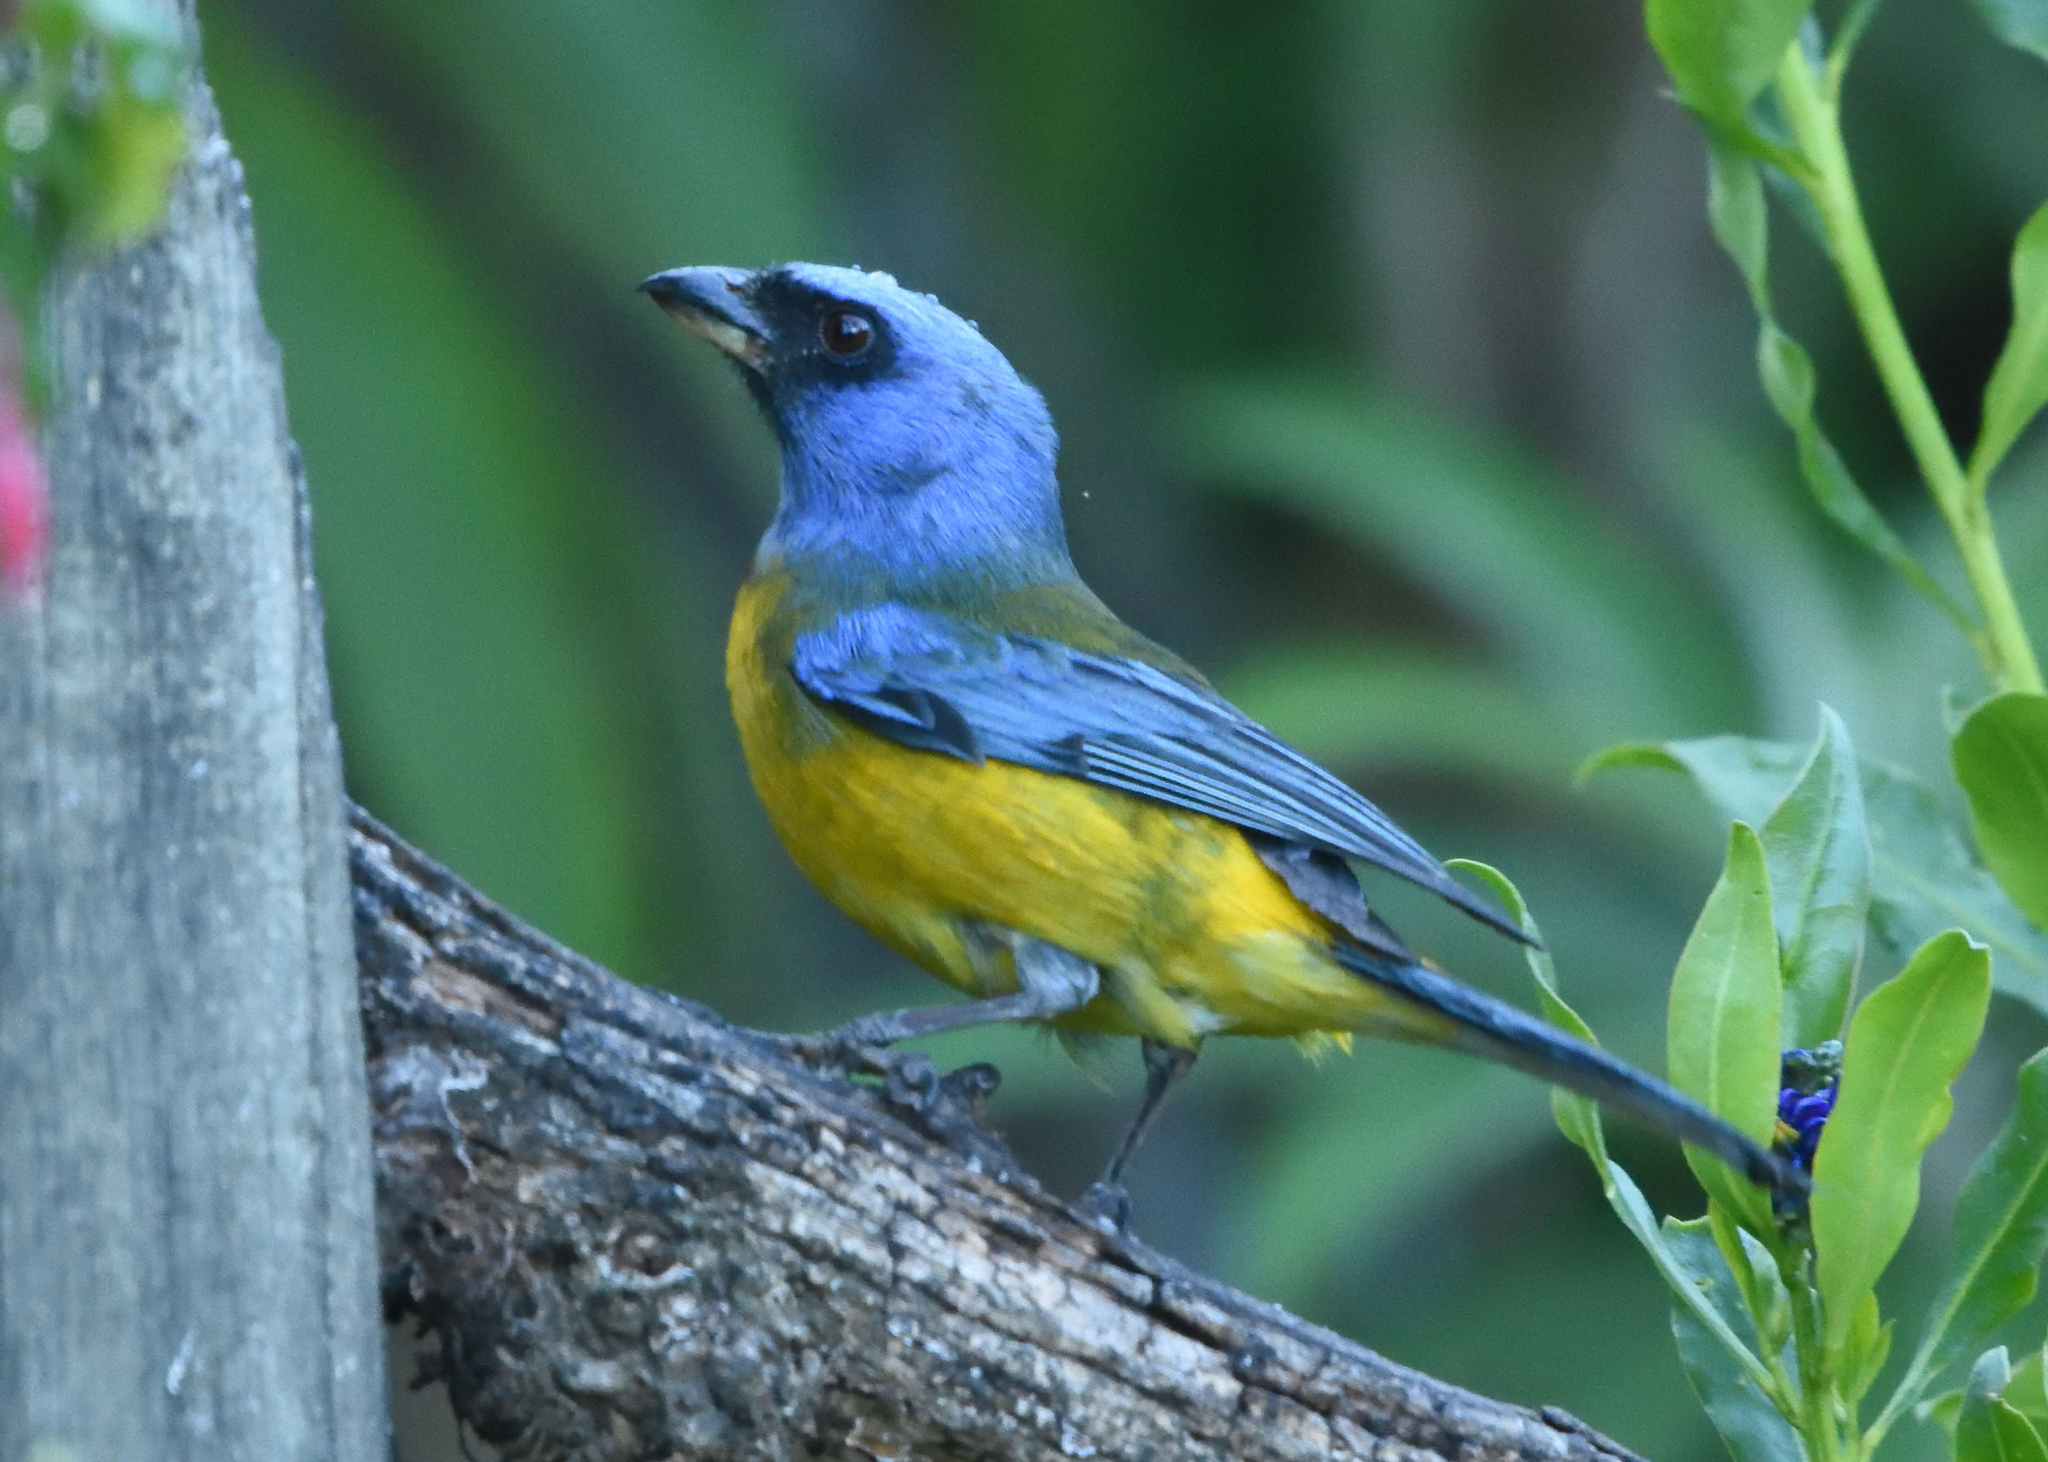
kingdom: Animalia
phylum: Chordata
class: Aves
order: Passeriformes
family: Thraupidae
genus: Rauenia
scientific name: Rauenia bonariensis
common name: Blue-and-yellow tanager
